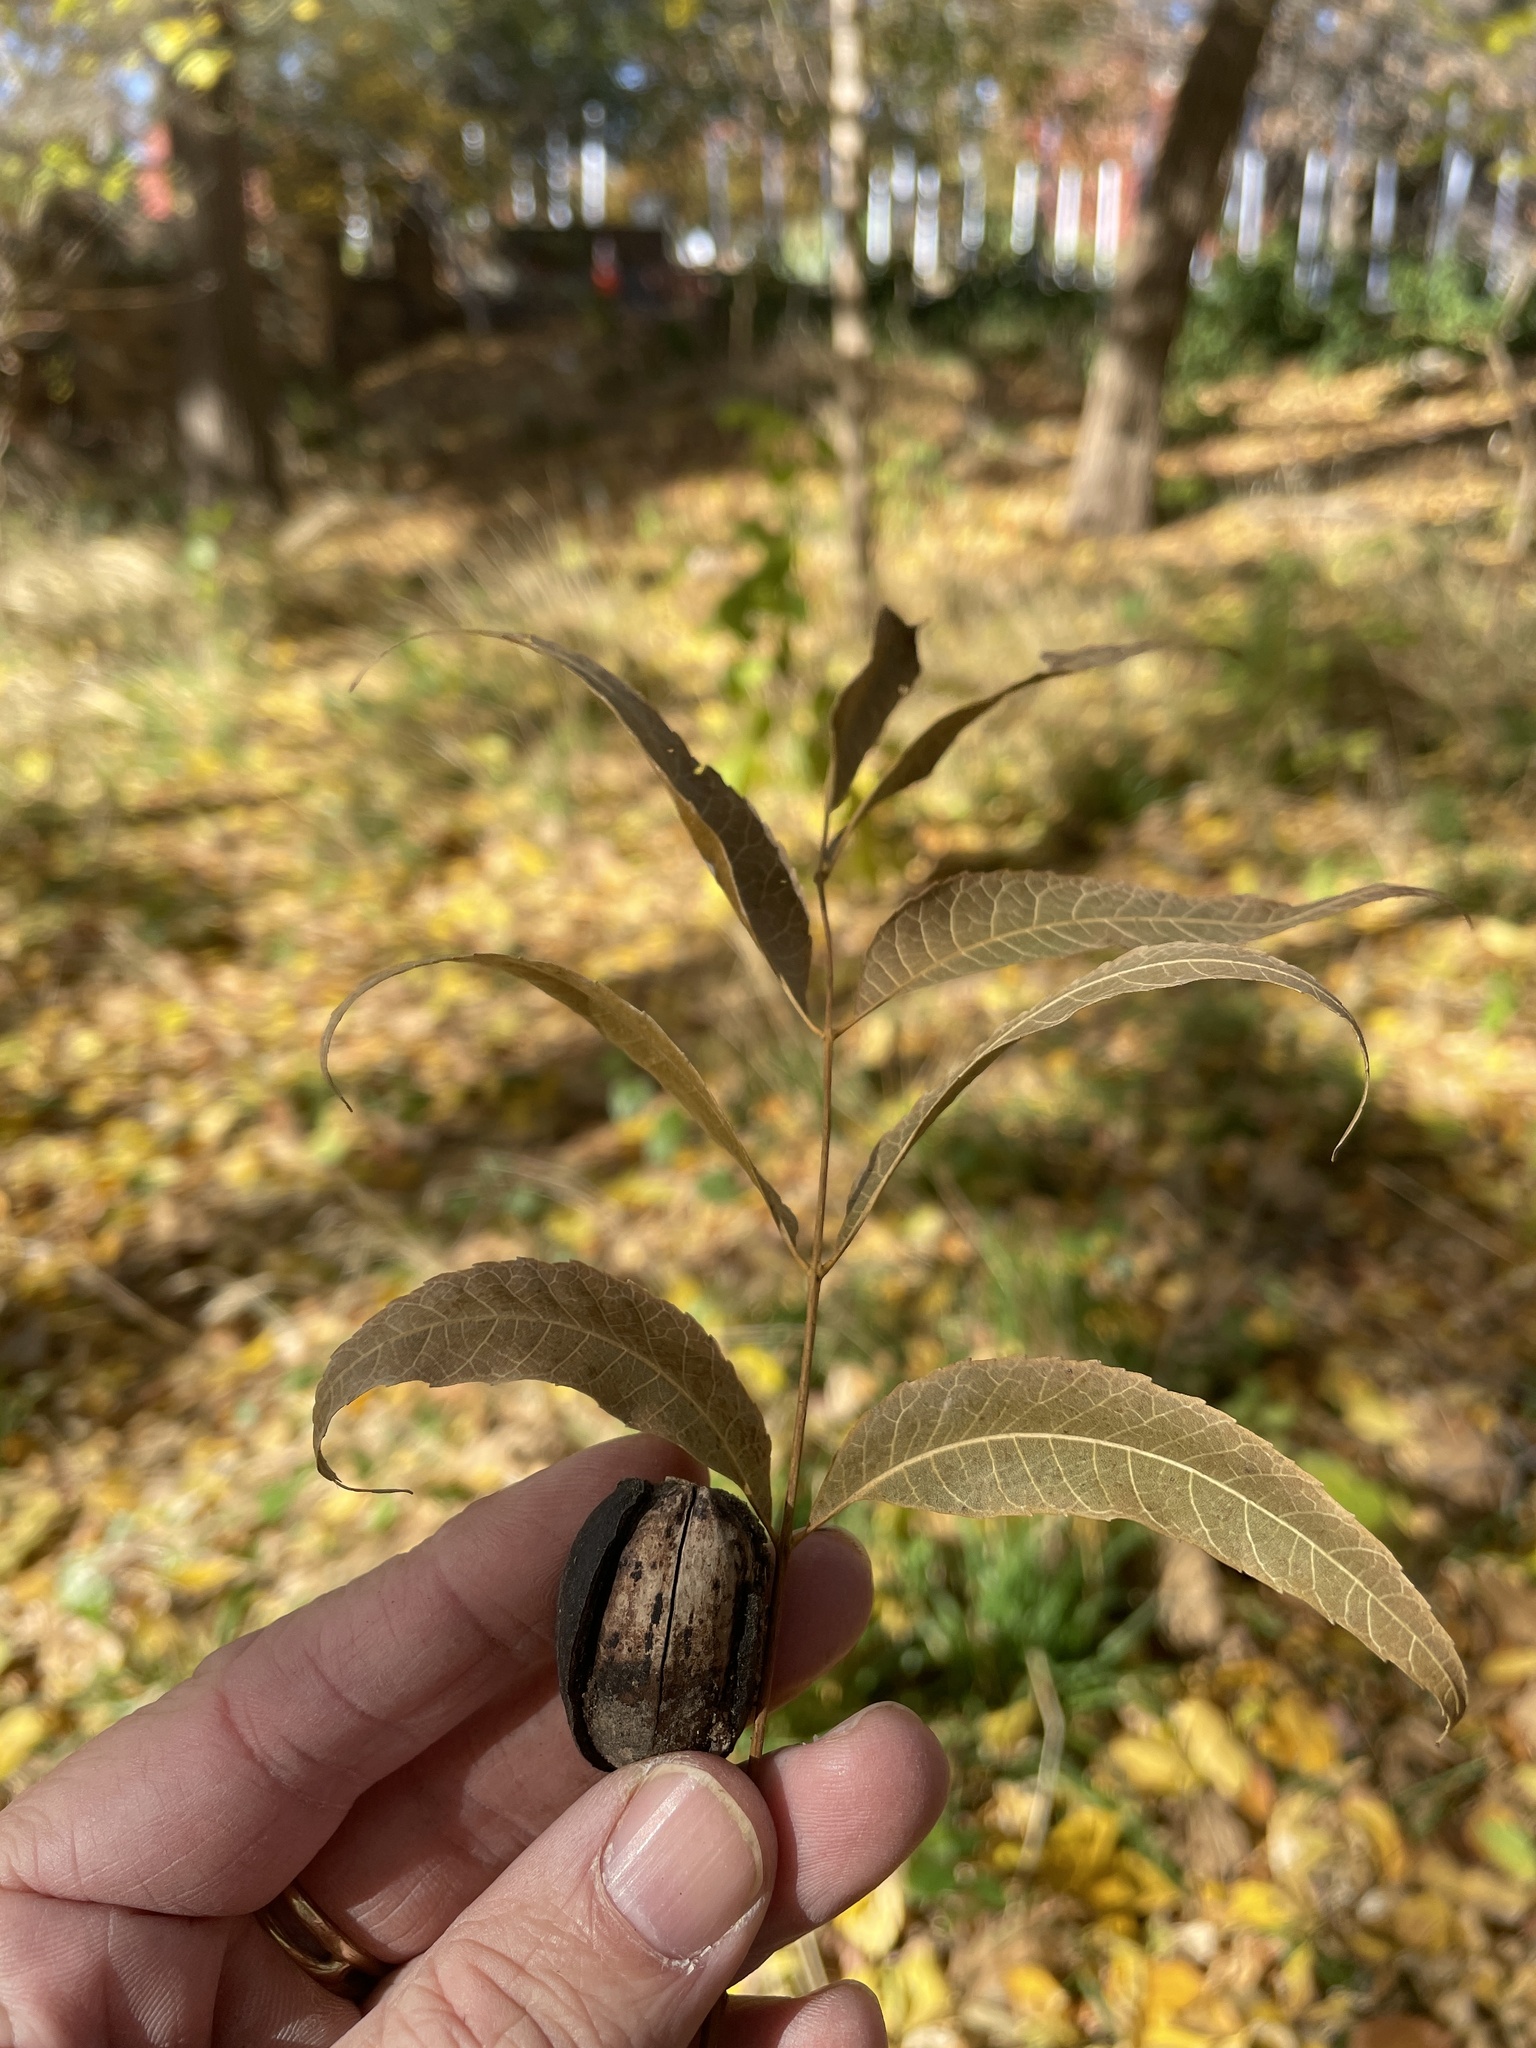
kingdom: Plantae
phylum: Tracheophyta
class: Magnoliopsida
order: Fagales
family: Juglandaceae
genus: Carya
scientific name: Carya illinoinensis
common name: Pecan
